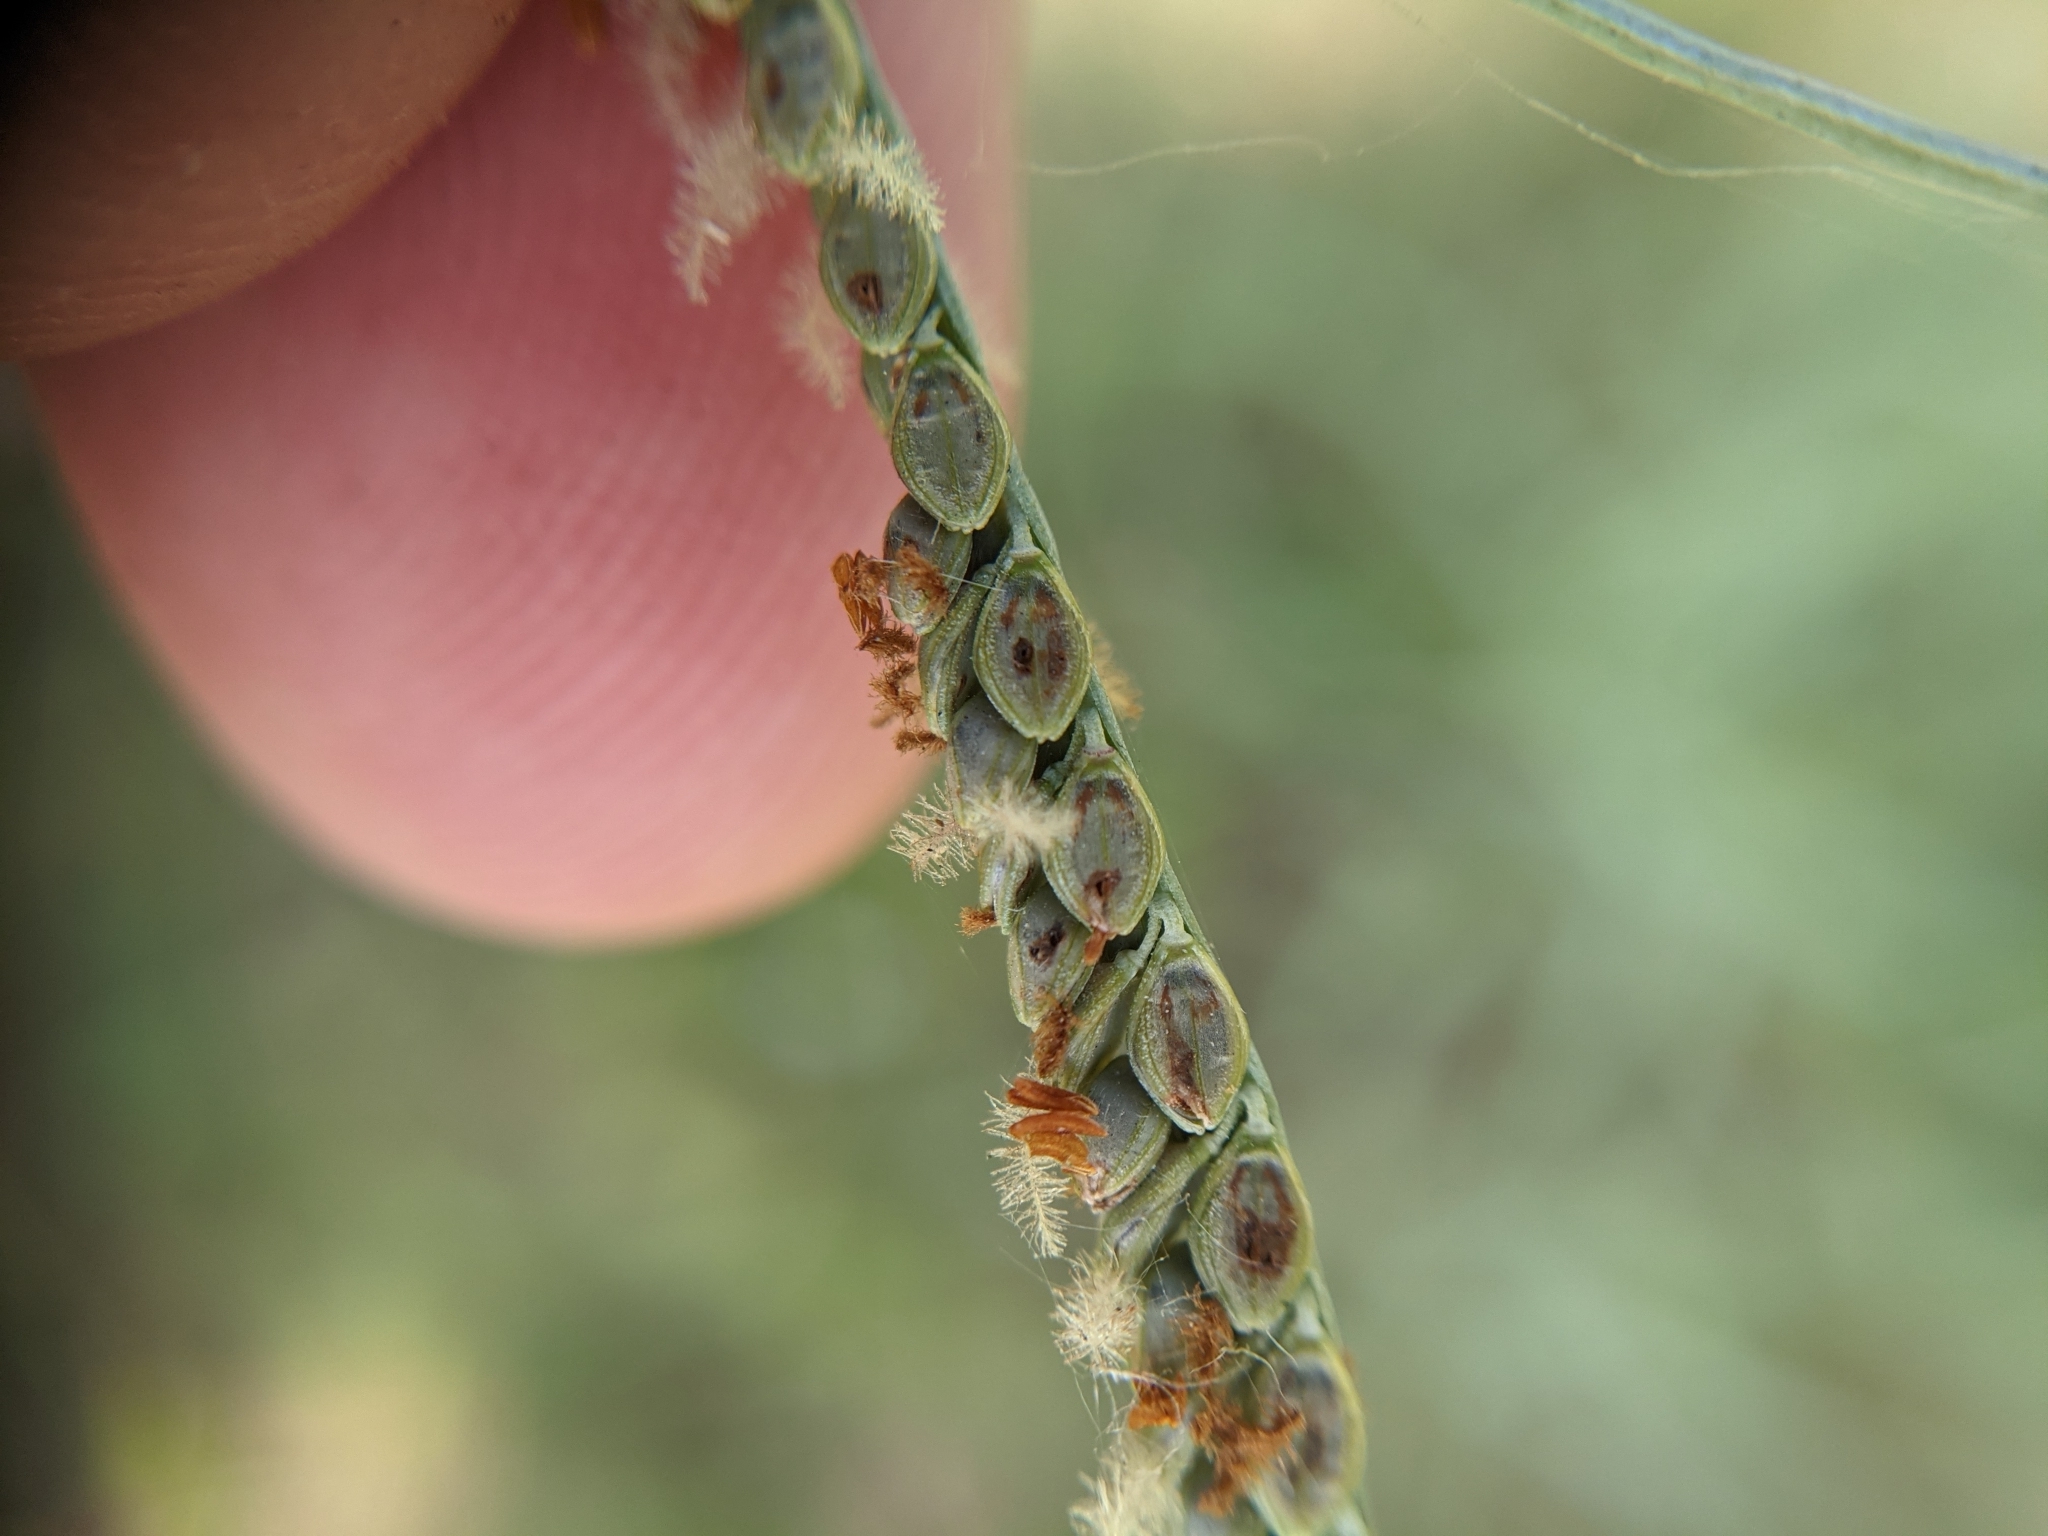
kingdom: Plantae
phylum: Tracheophyta
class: Liliopsida
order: Poales
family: Poaceae
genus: Paspalum
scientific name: Paspalum plicatulum
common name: Top paspalum
